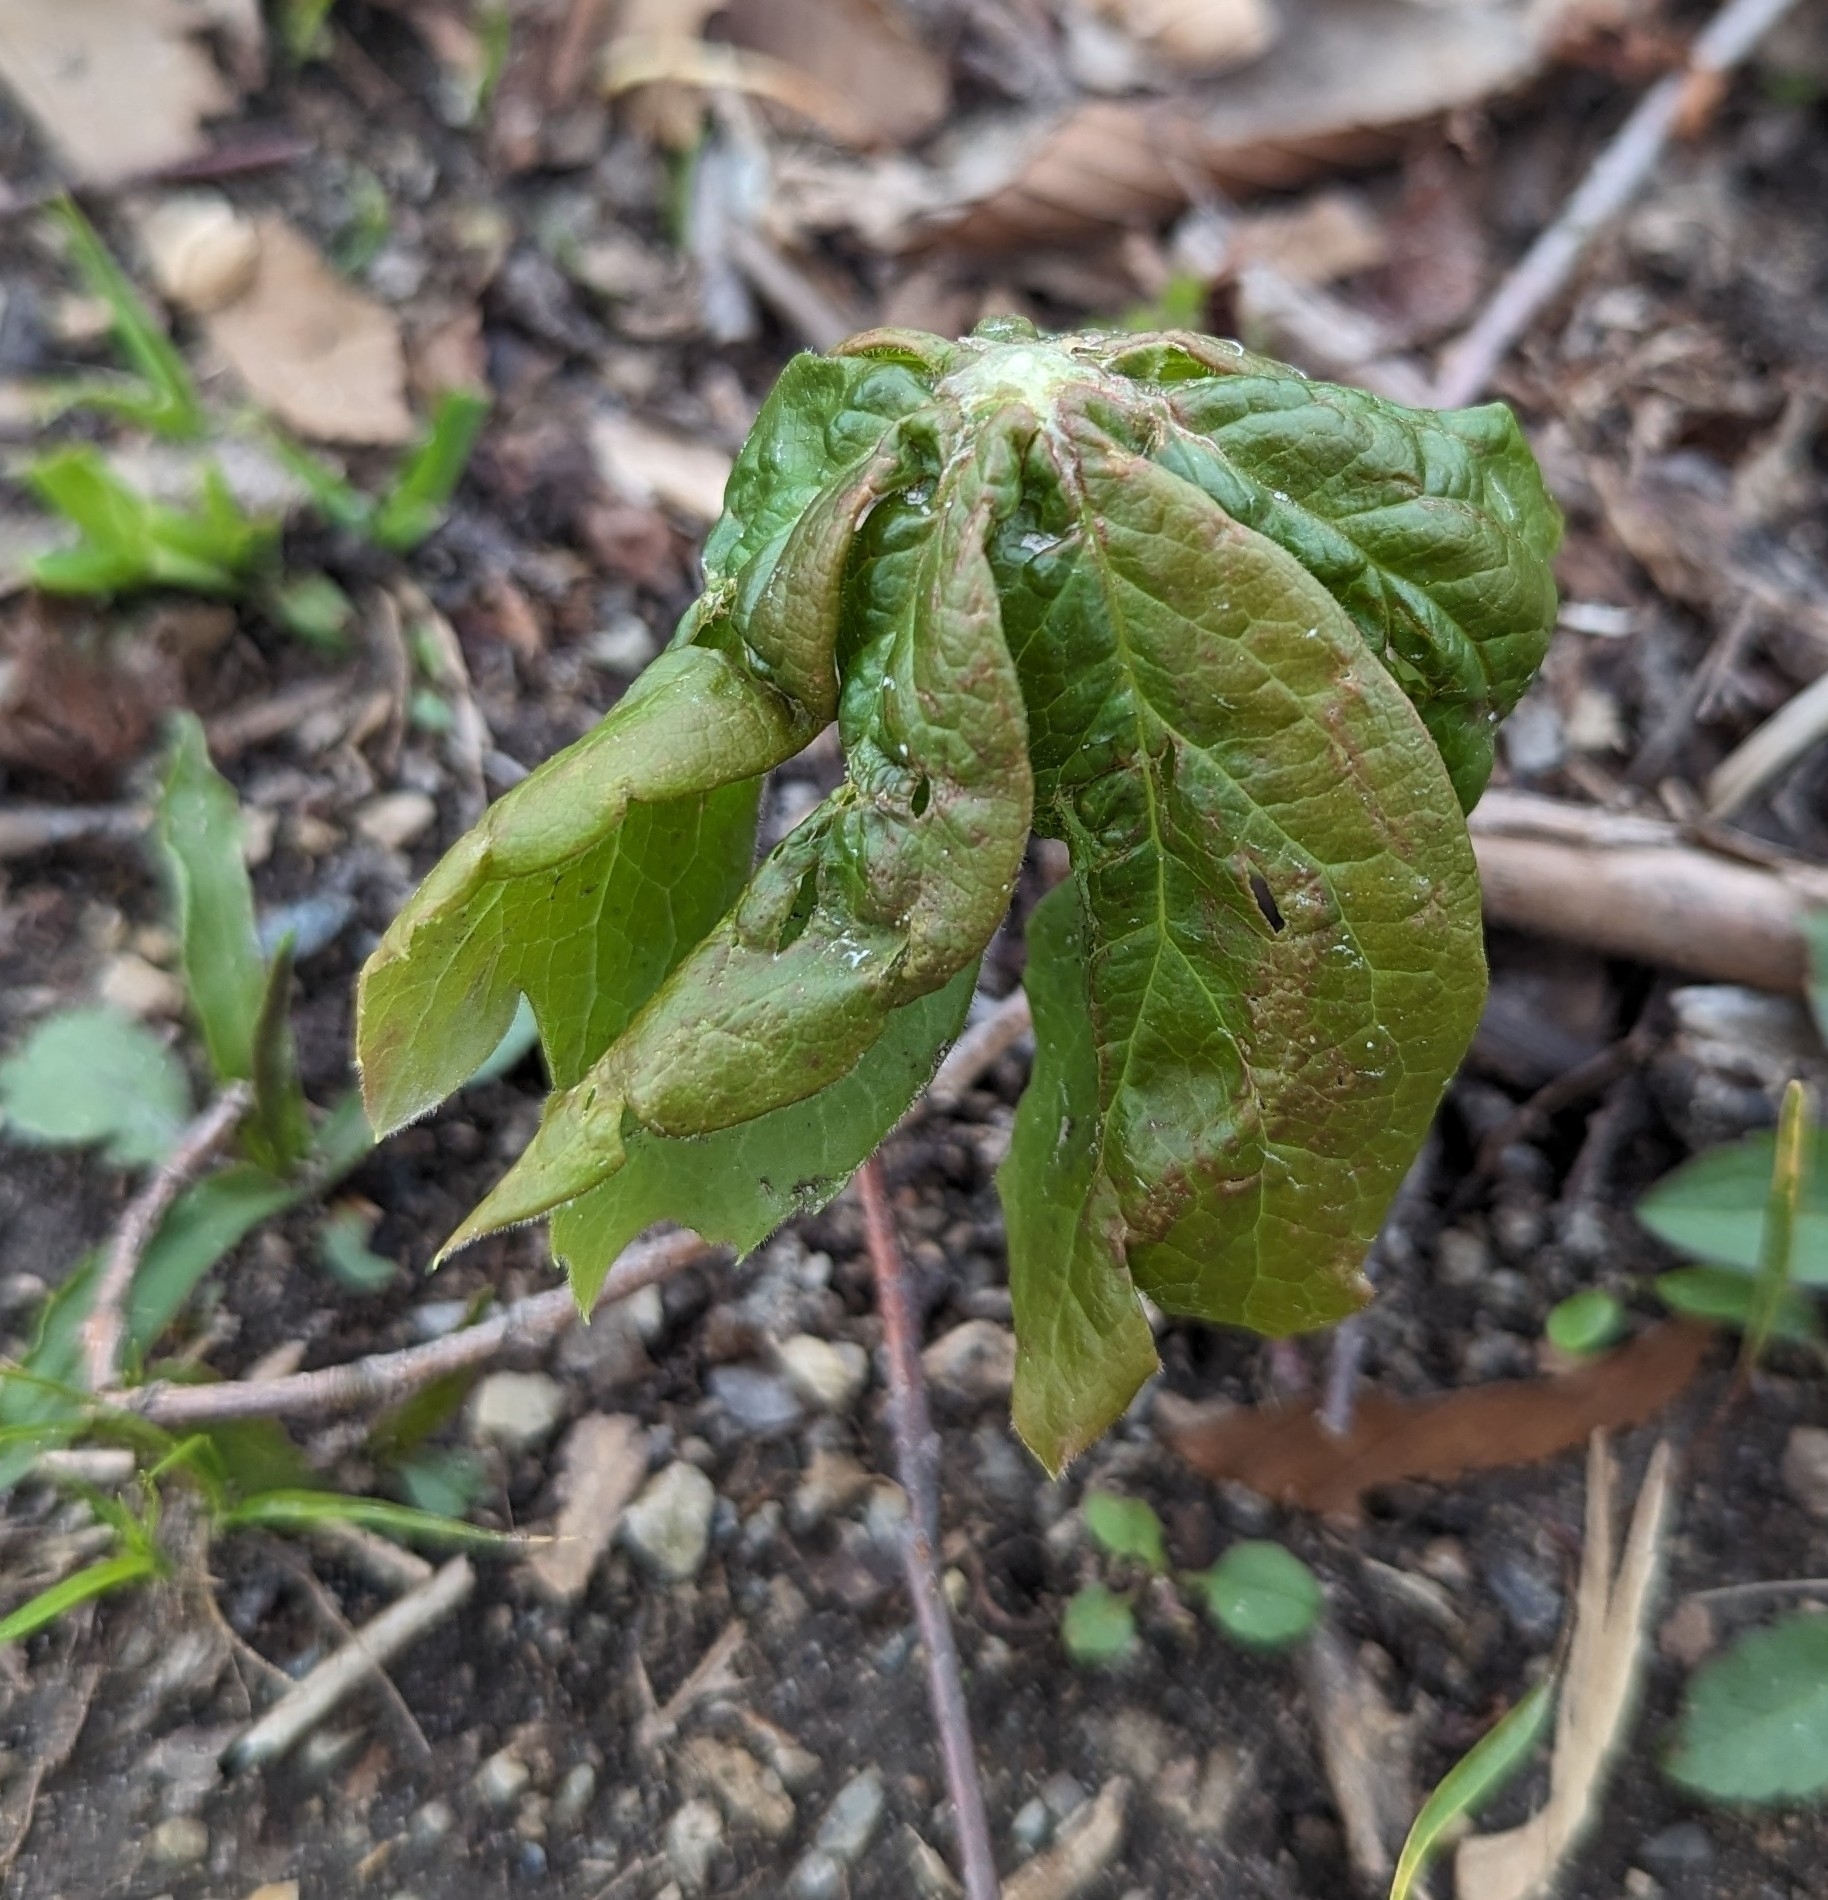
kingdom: Plantae
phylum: Tracheophyta
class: Magnoliopsida
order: Ranunculales
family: Berberidaceae
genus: Podophyllum
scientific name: Podophyllum peltatum
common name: Wild mandrake
